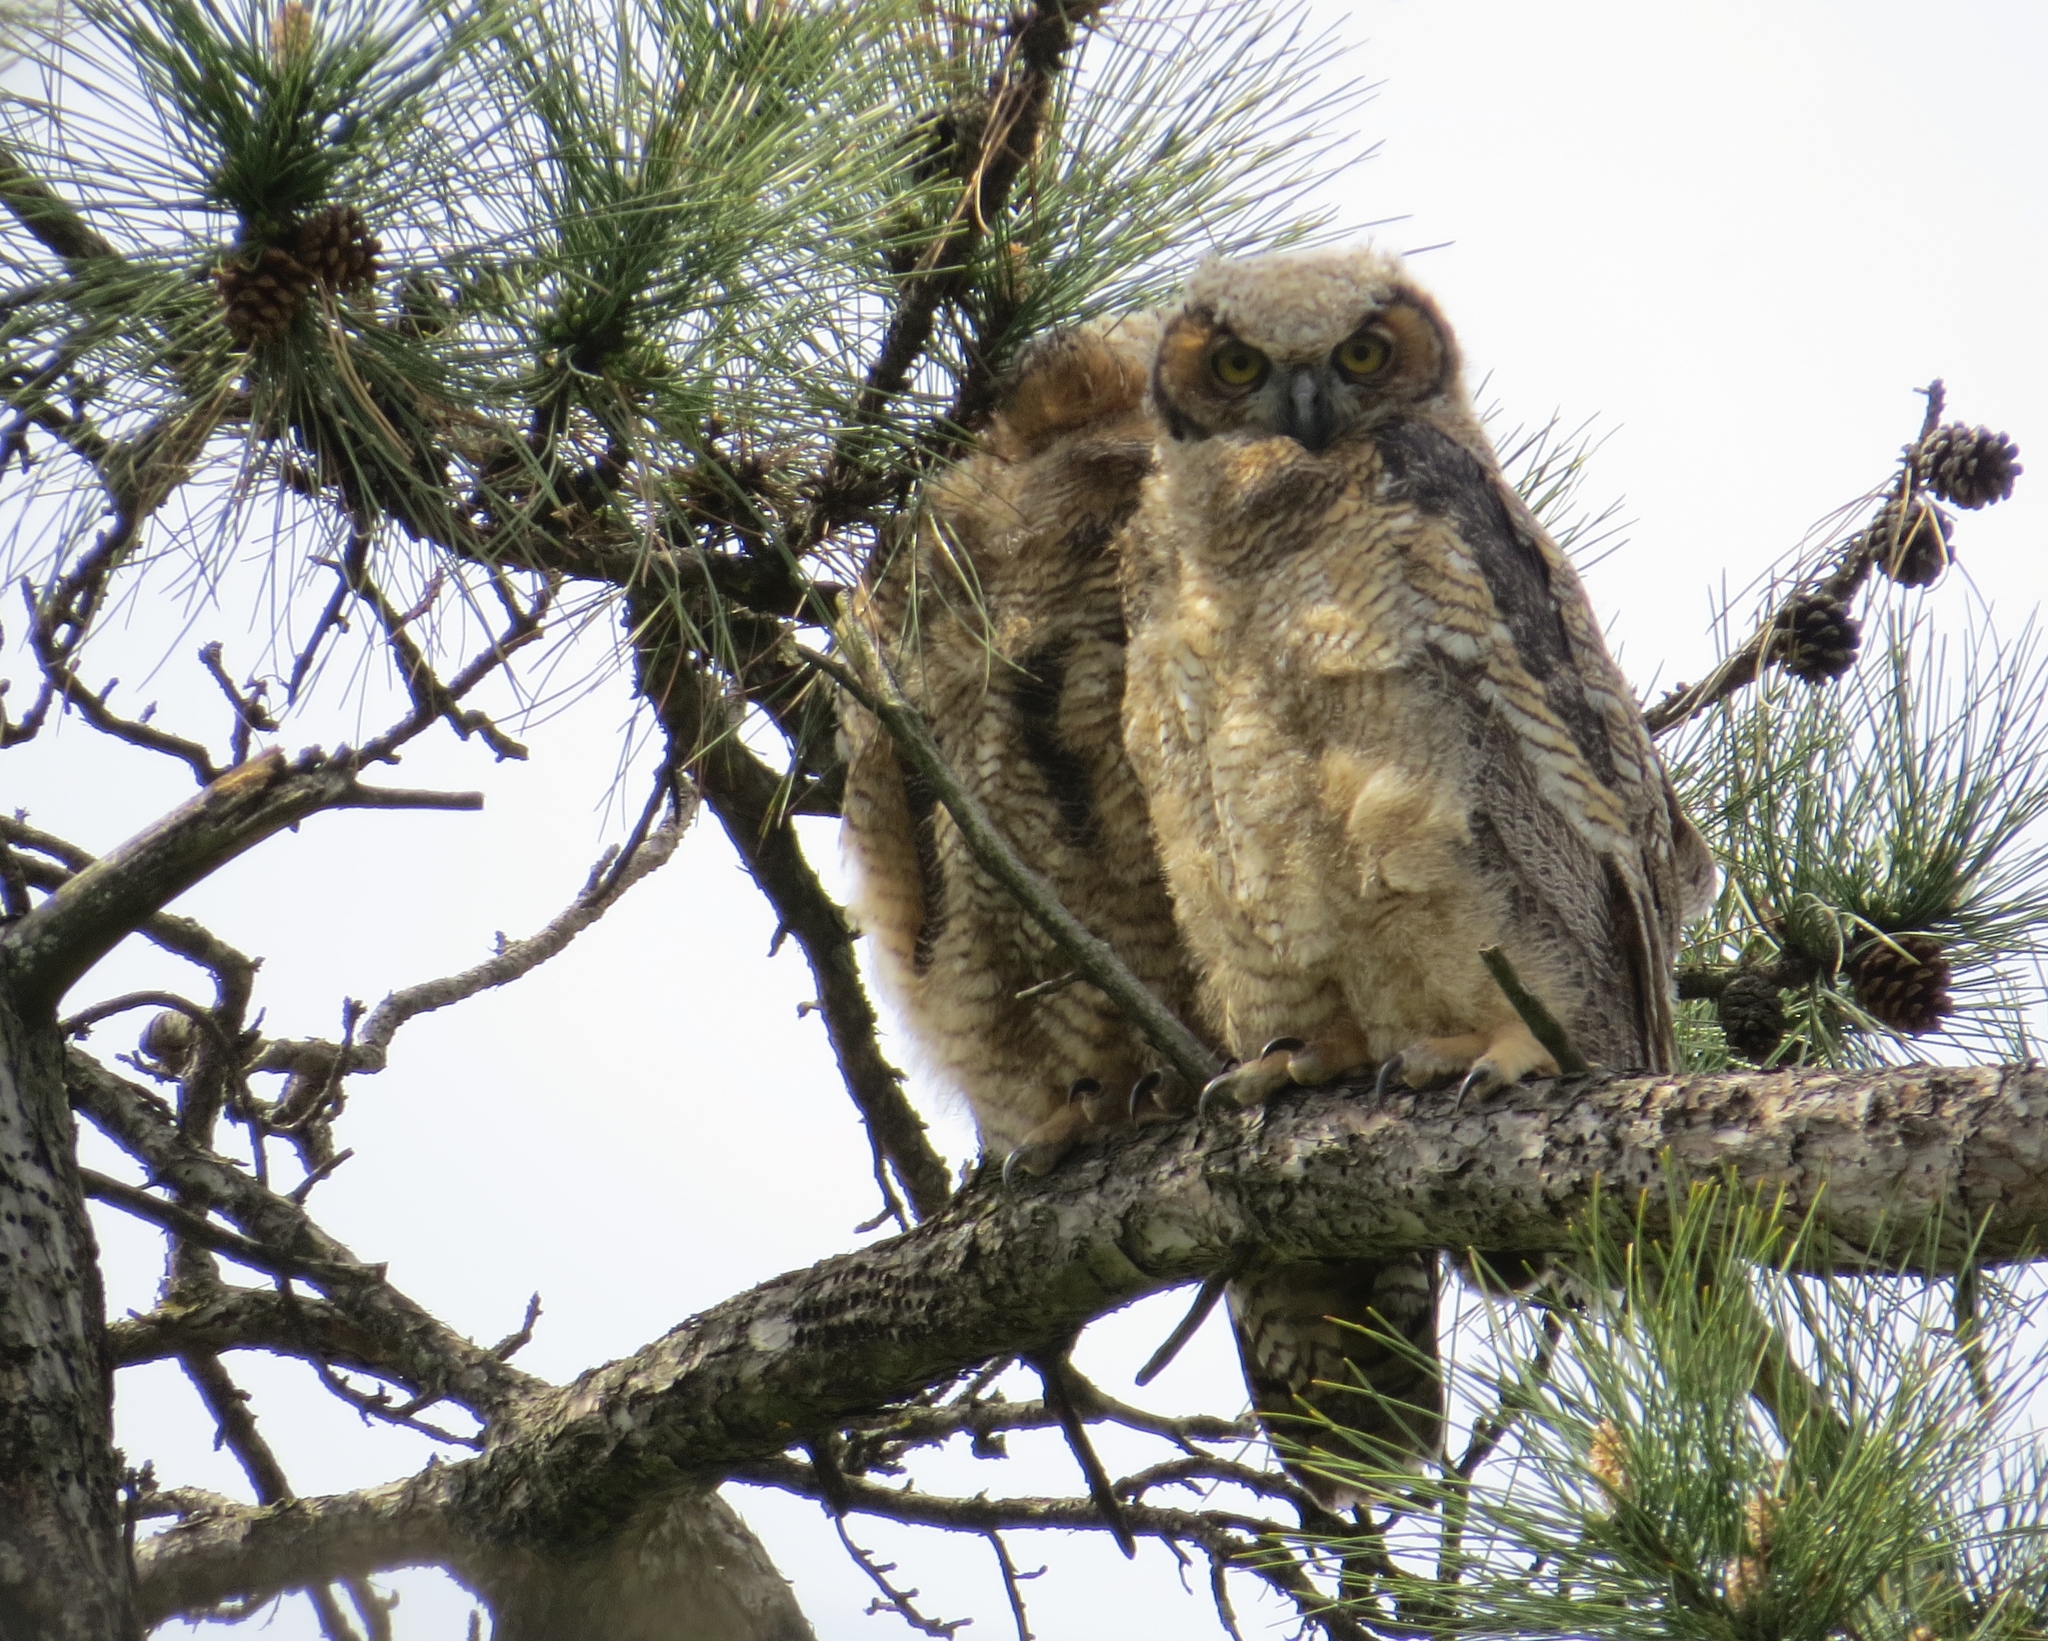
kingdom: Animalia
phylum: Chordata
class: Aves
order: Strigiformes
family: Strigidae
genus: Bubo
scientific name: Bubo virginianus
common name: Great horned owl
